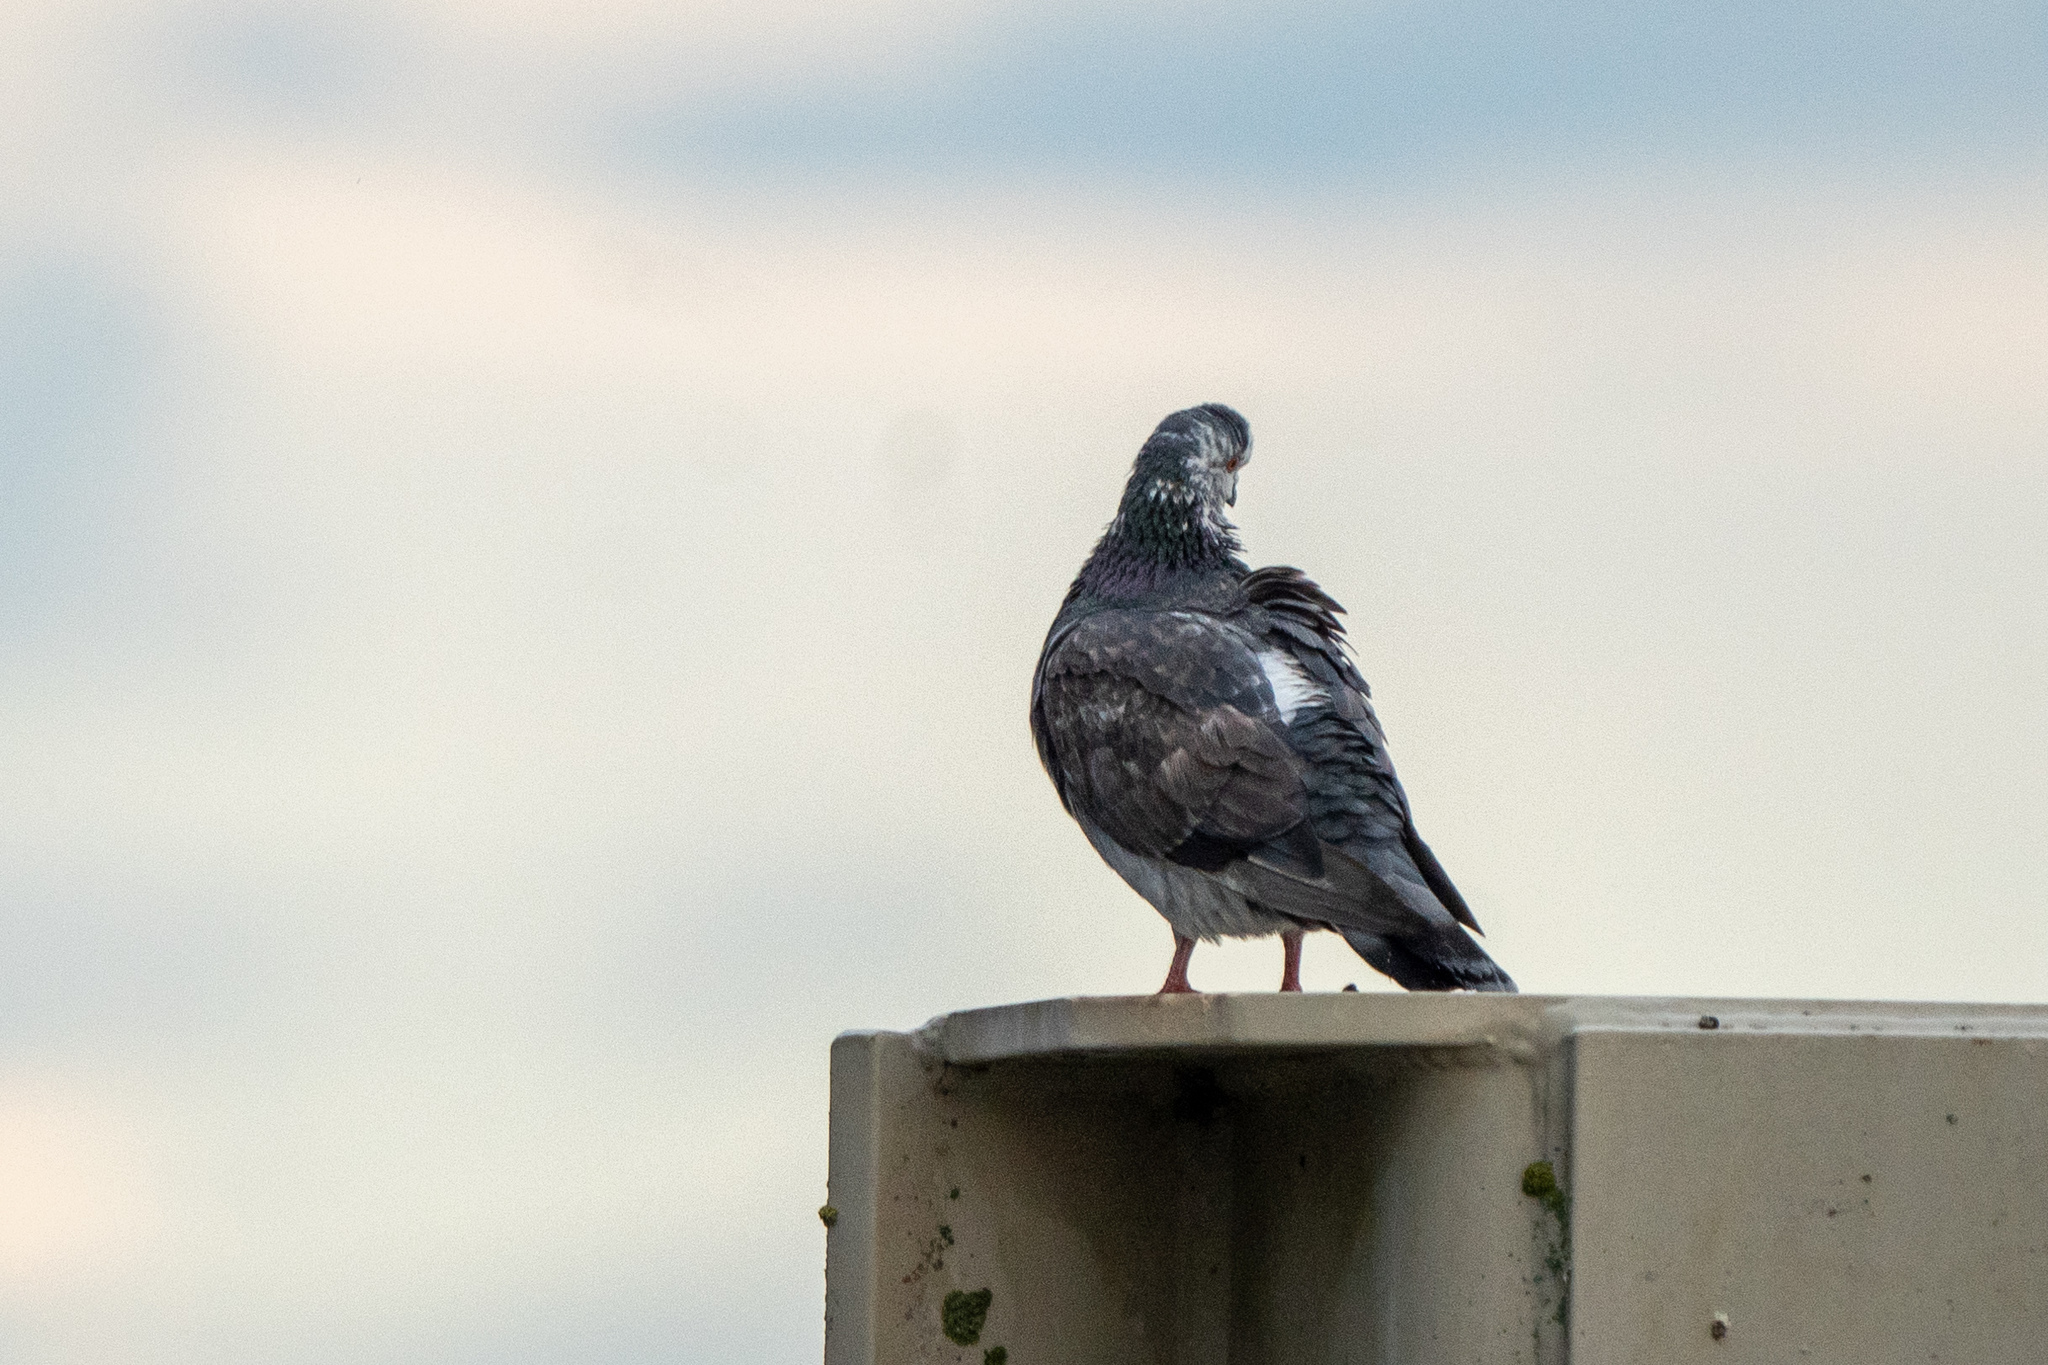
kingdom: Animalia
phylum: Chordata
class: Aves
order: Columbiformes
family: Columbidae
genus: Columba
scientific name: Columba livia
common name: Rock pigeon
